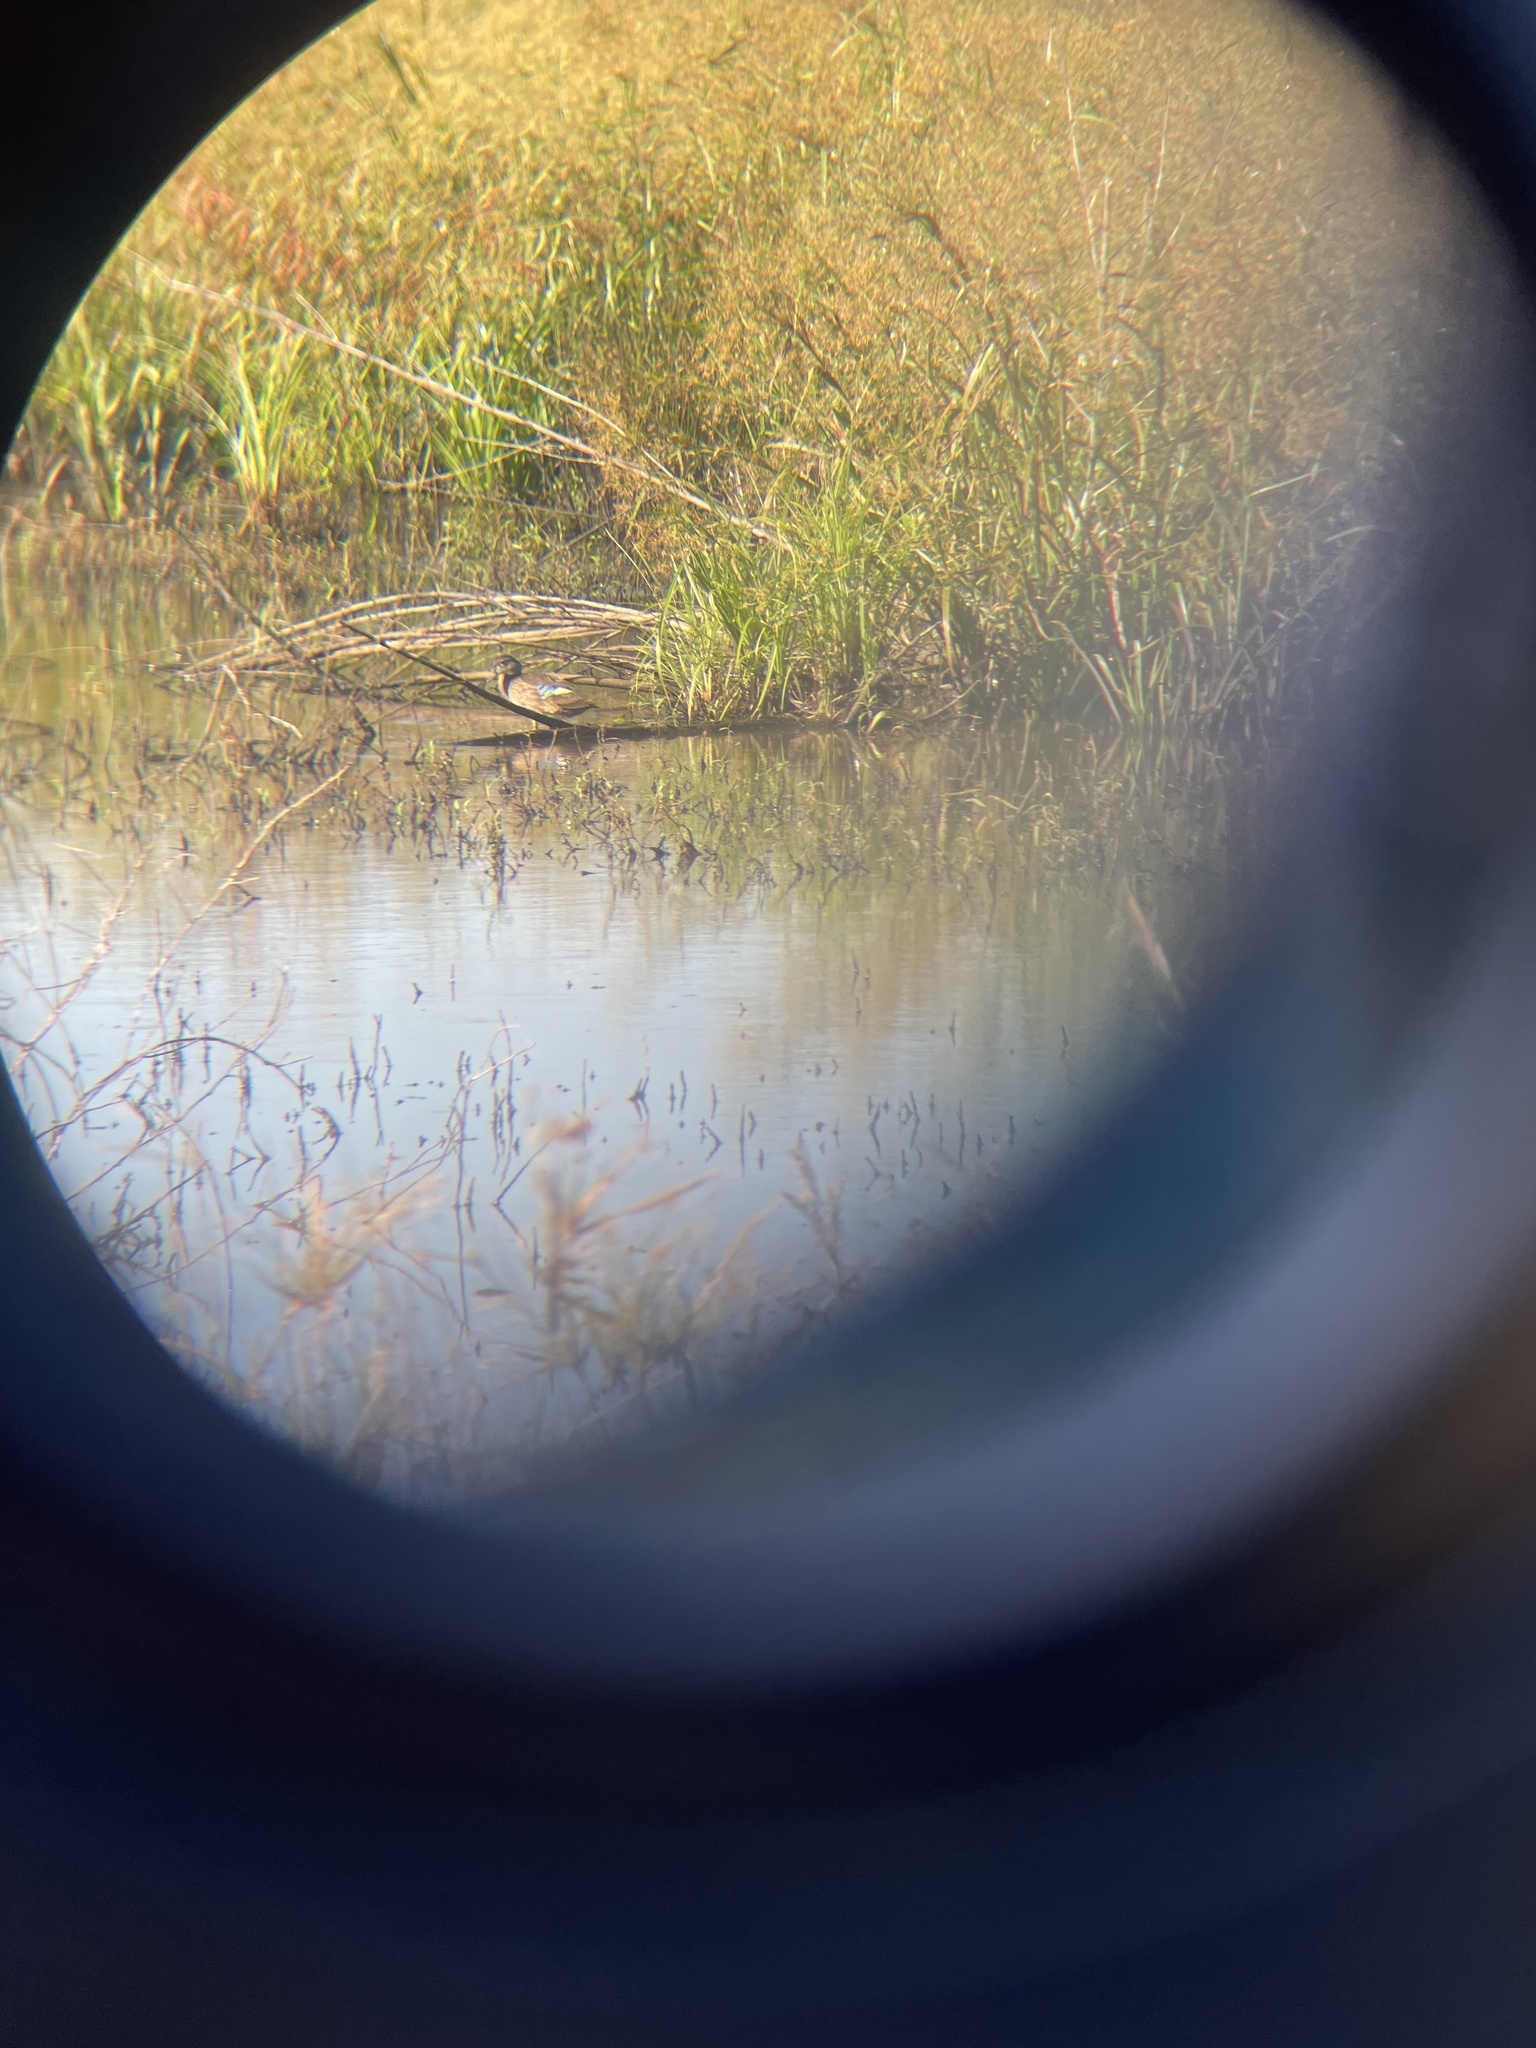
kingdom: Animalia
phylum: Chordata
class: Aves
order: Anseriformes
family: Anatidae
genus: Anas
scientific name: Anas platyrhynchos
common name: Mallard
